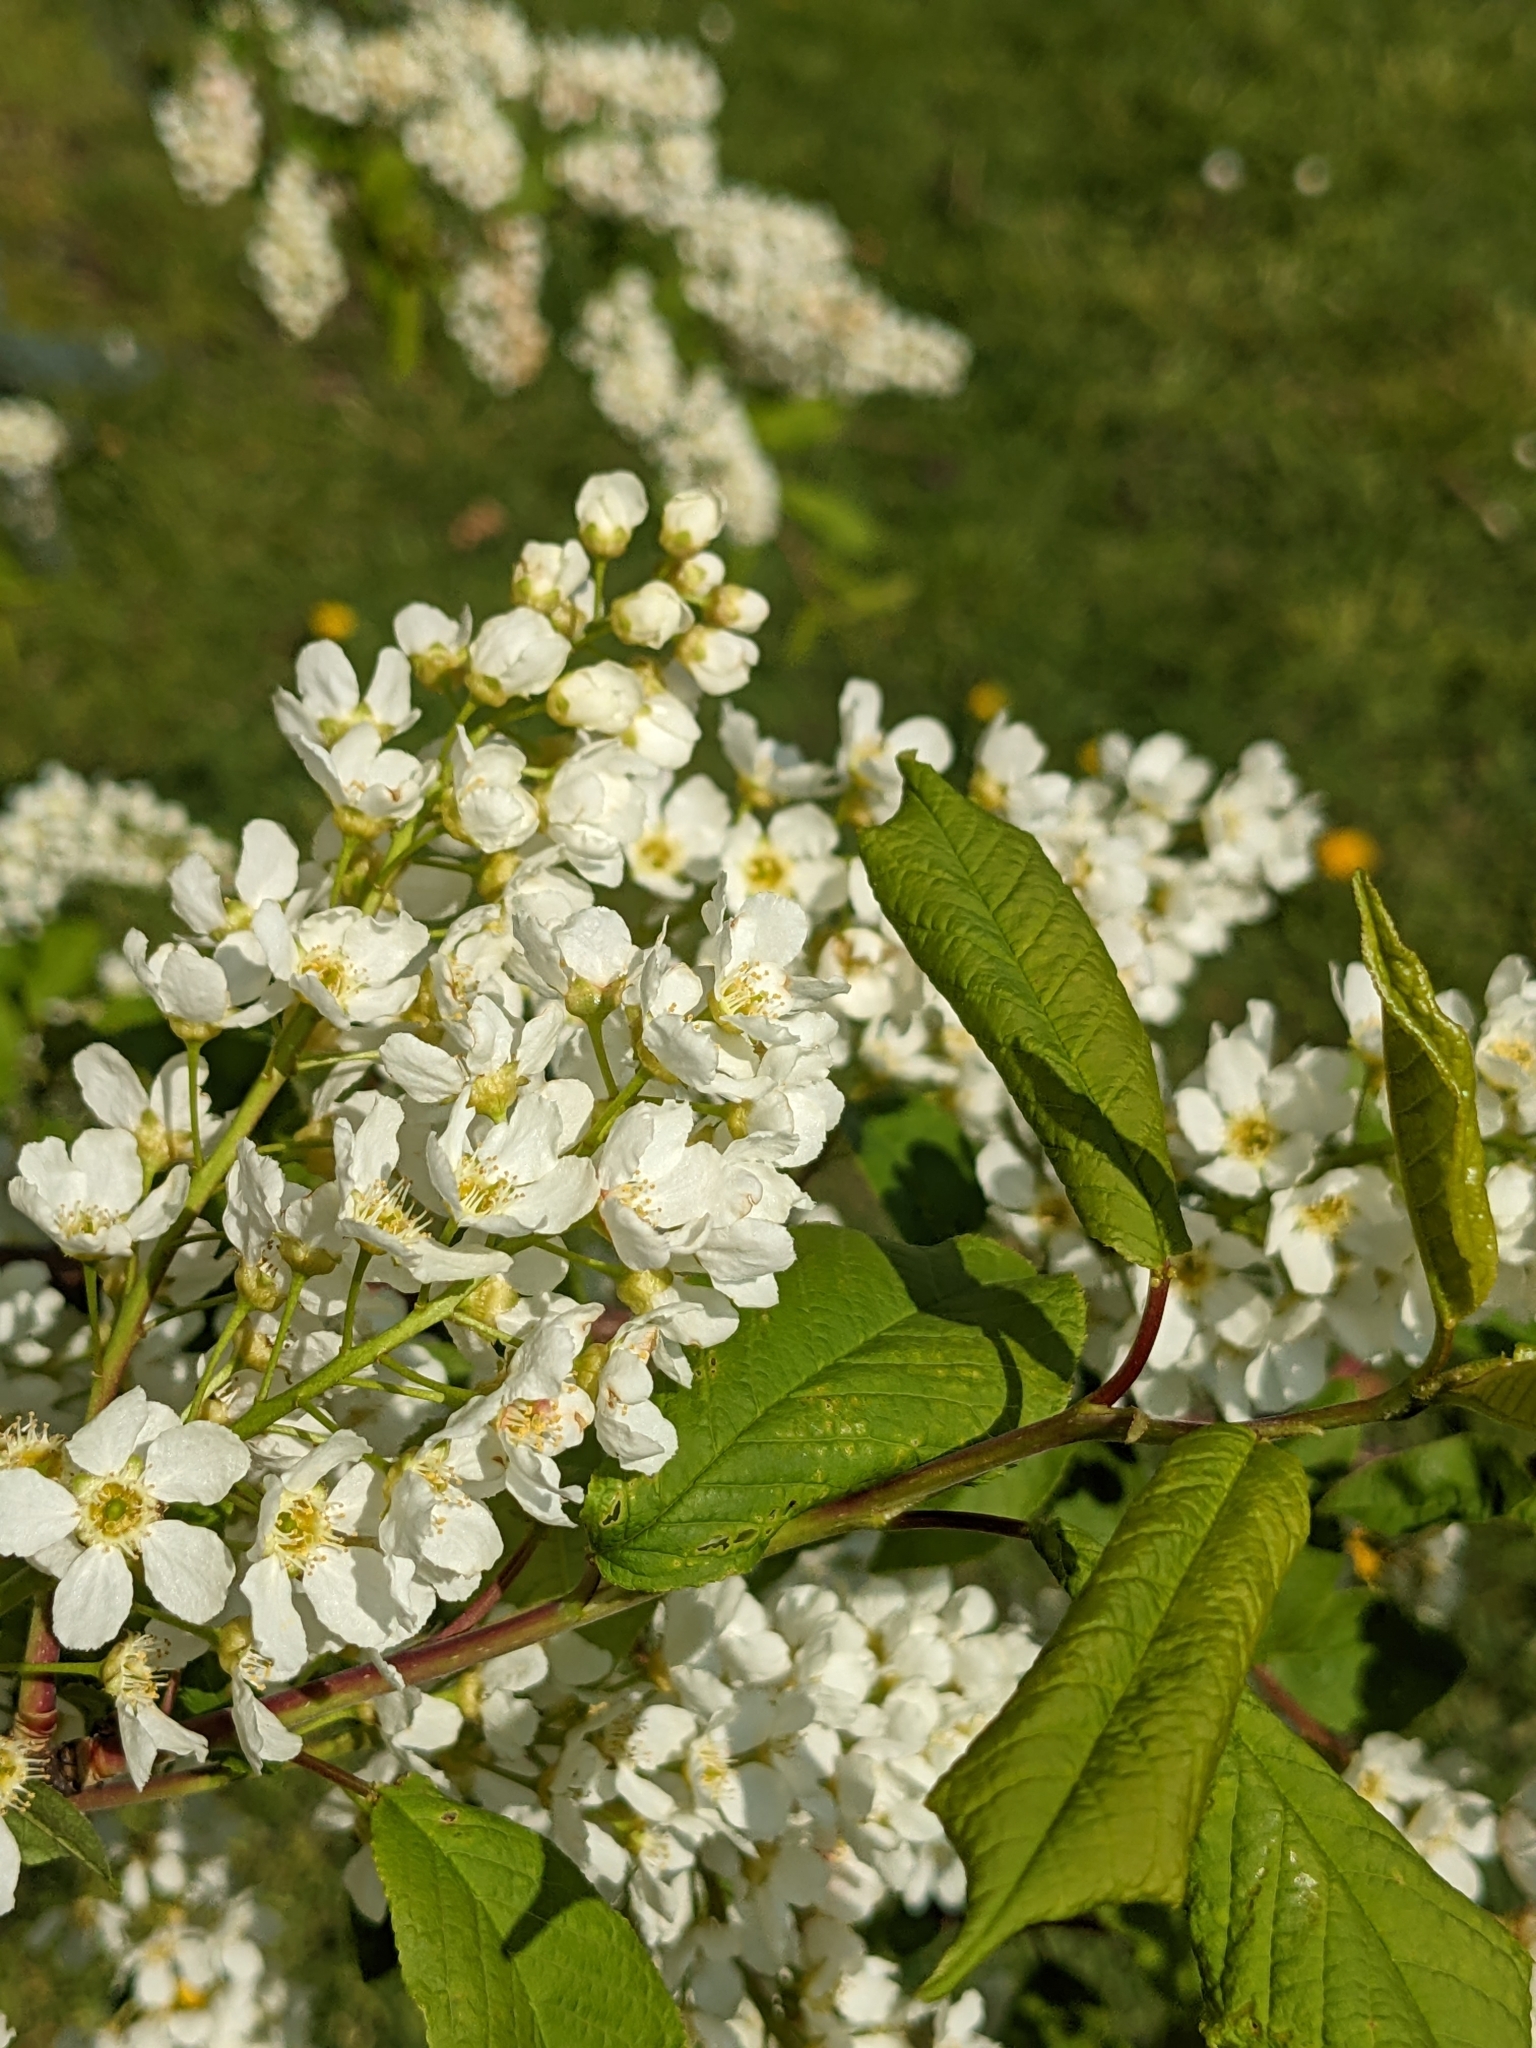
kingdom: Plantae
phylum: Tracheophyta
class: Magnoliopsida
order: Rosales
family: Rosaceae
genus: Prunus
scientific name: Prunus padus
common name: Bird cherry
